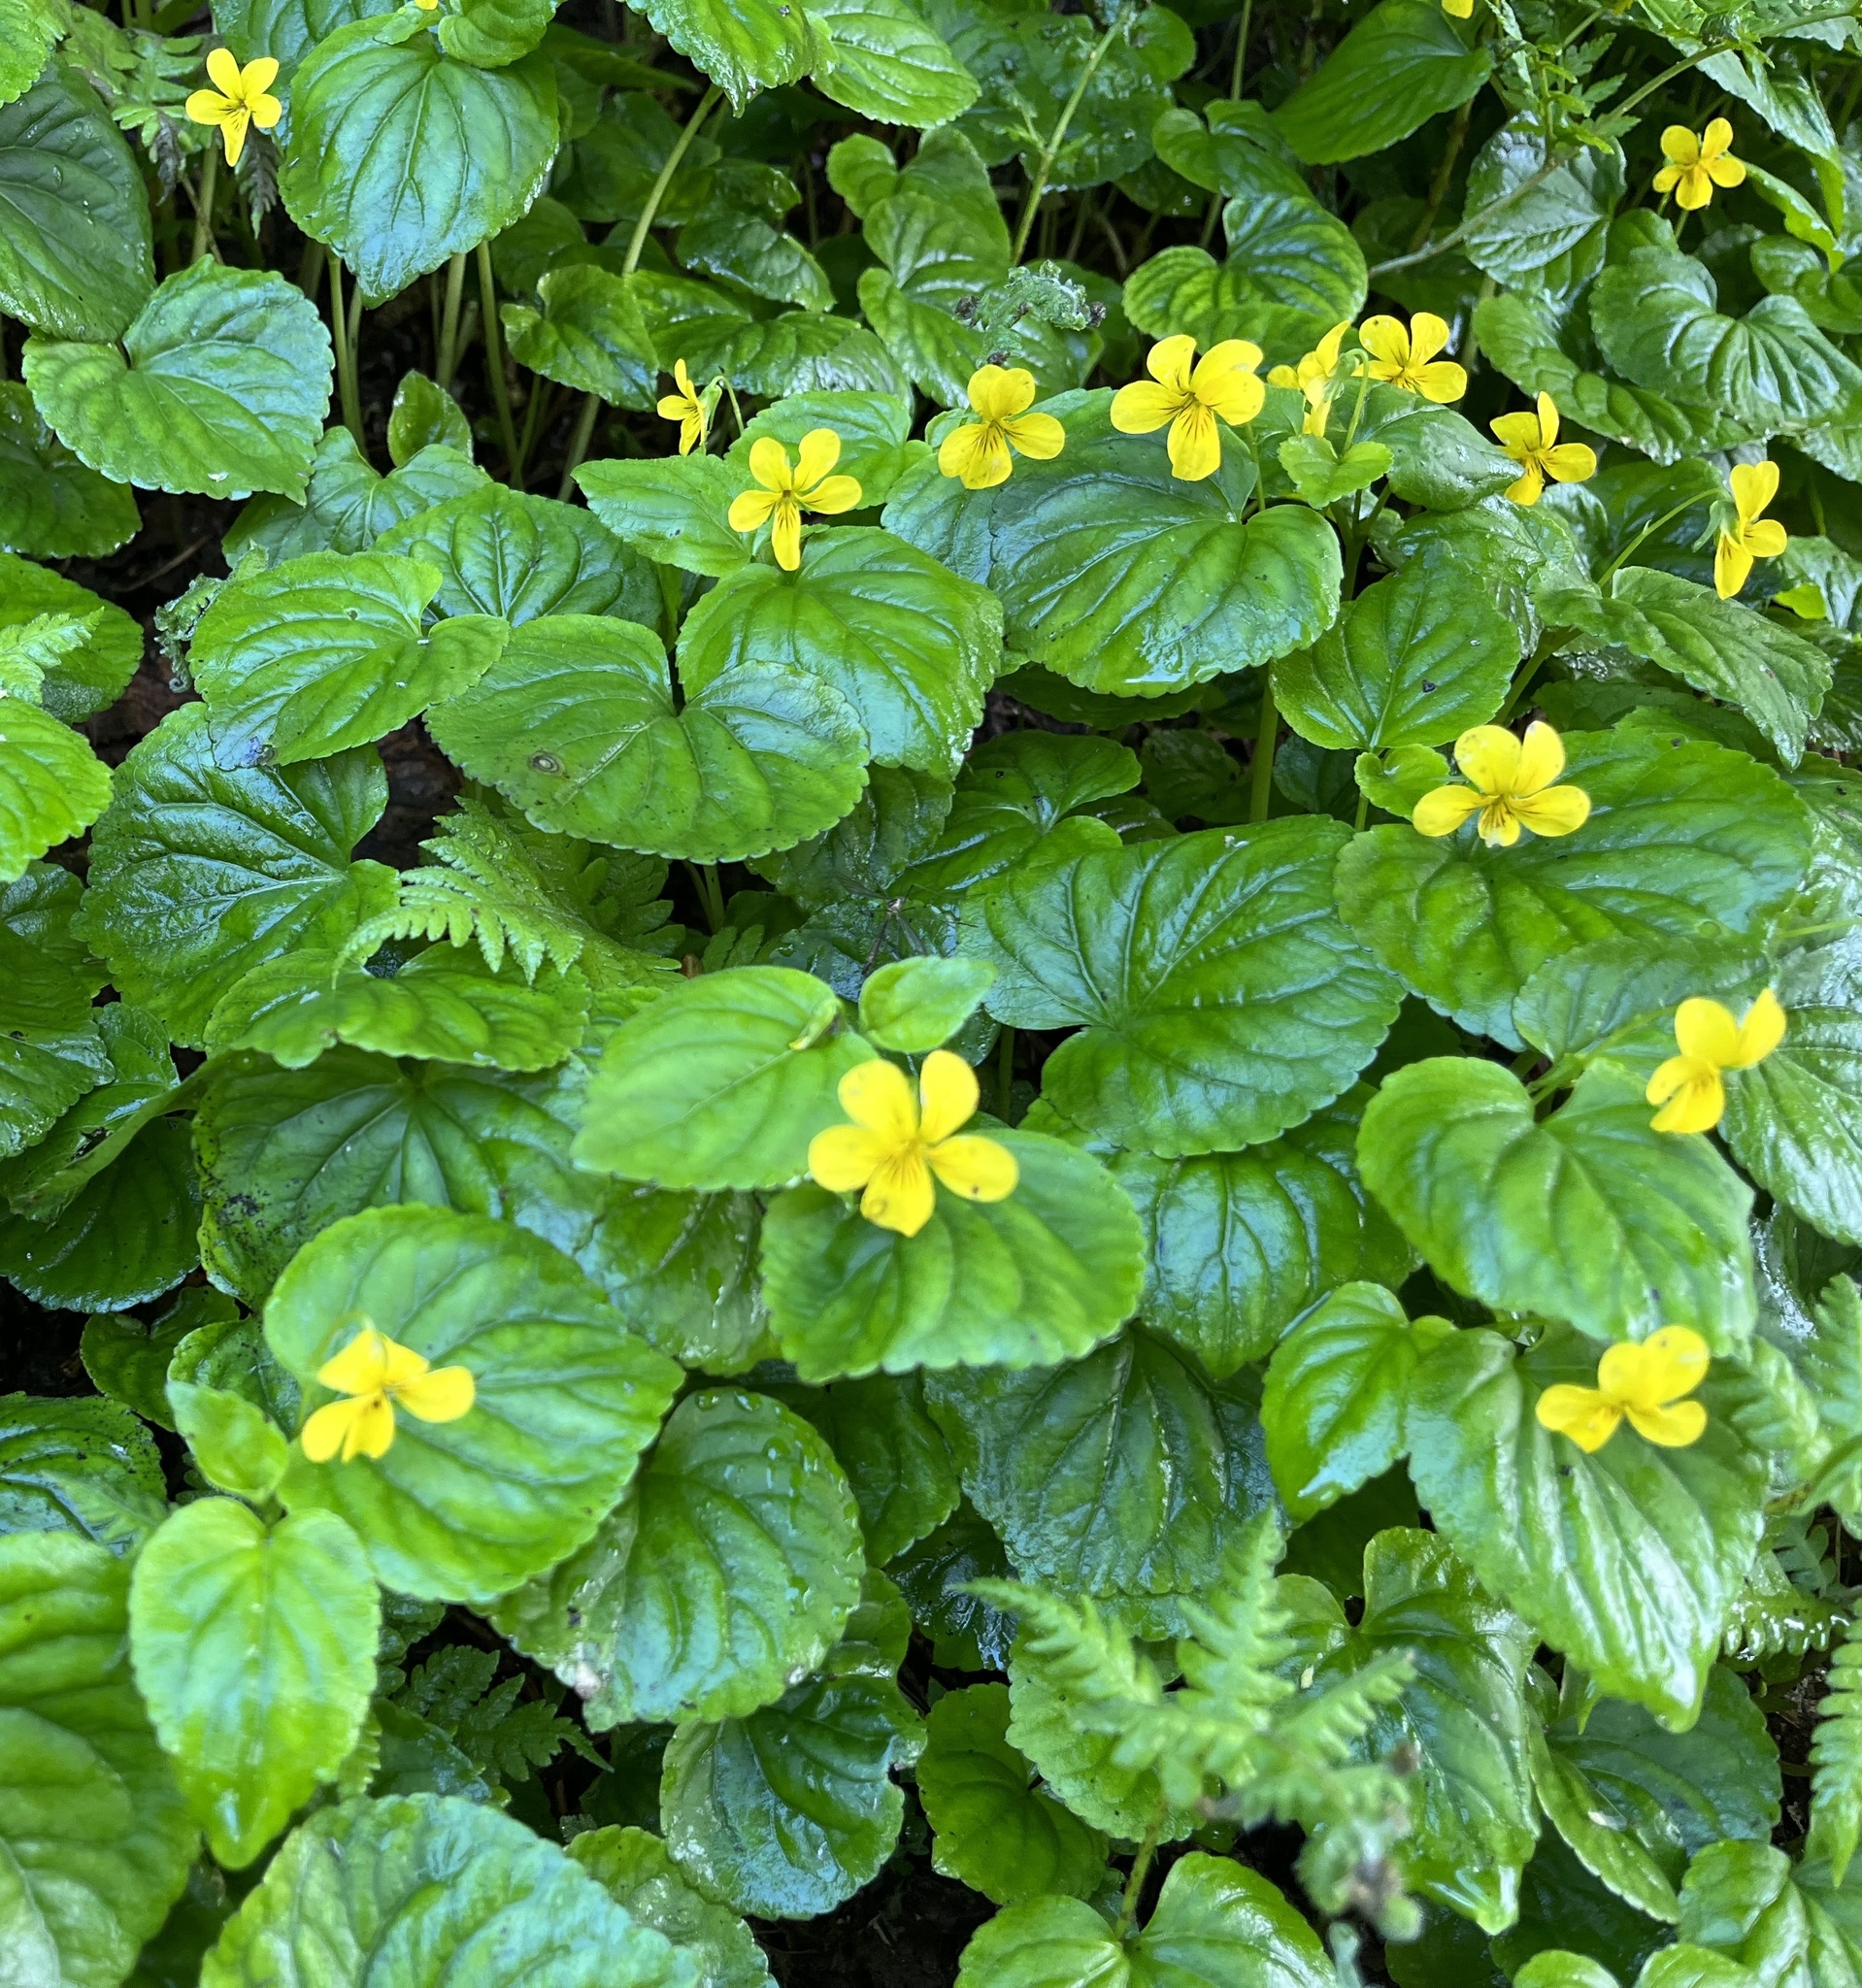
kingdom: Plantae
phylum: Tracheophyta
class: Magnoliopsida
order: Malpighiales
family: Violaceae
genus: Viola
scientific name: Viola glabella
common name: Stream violet
